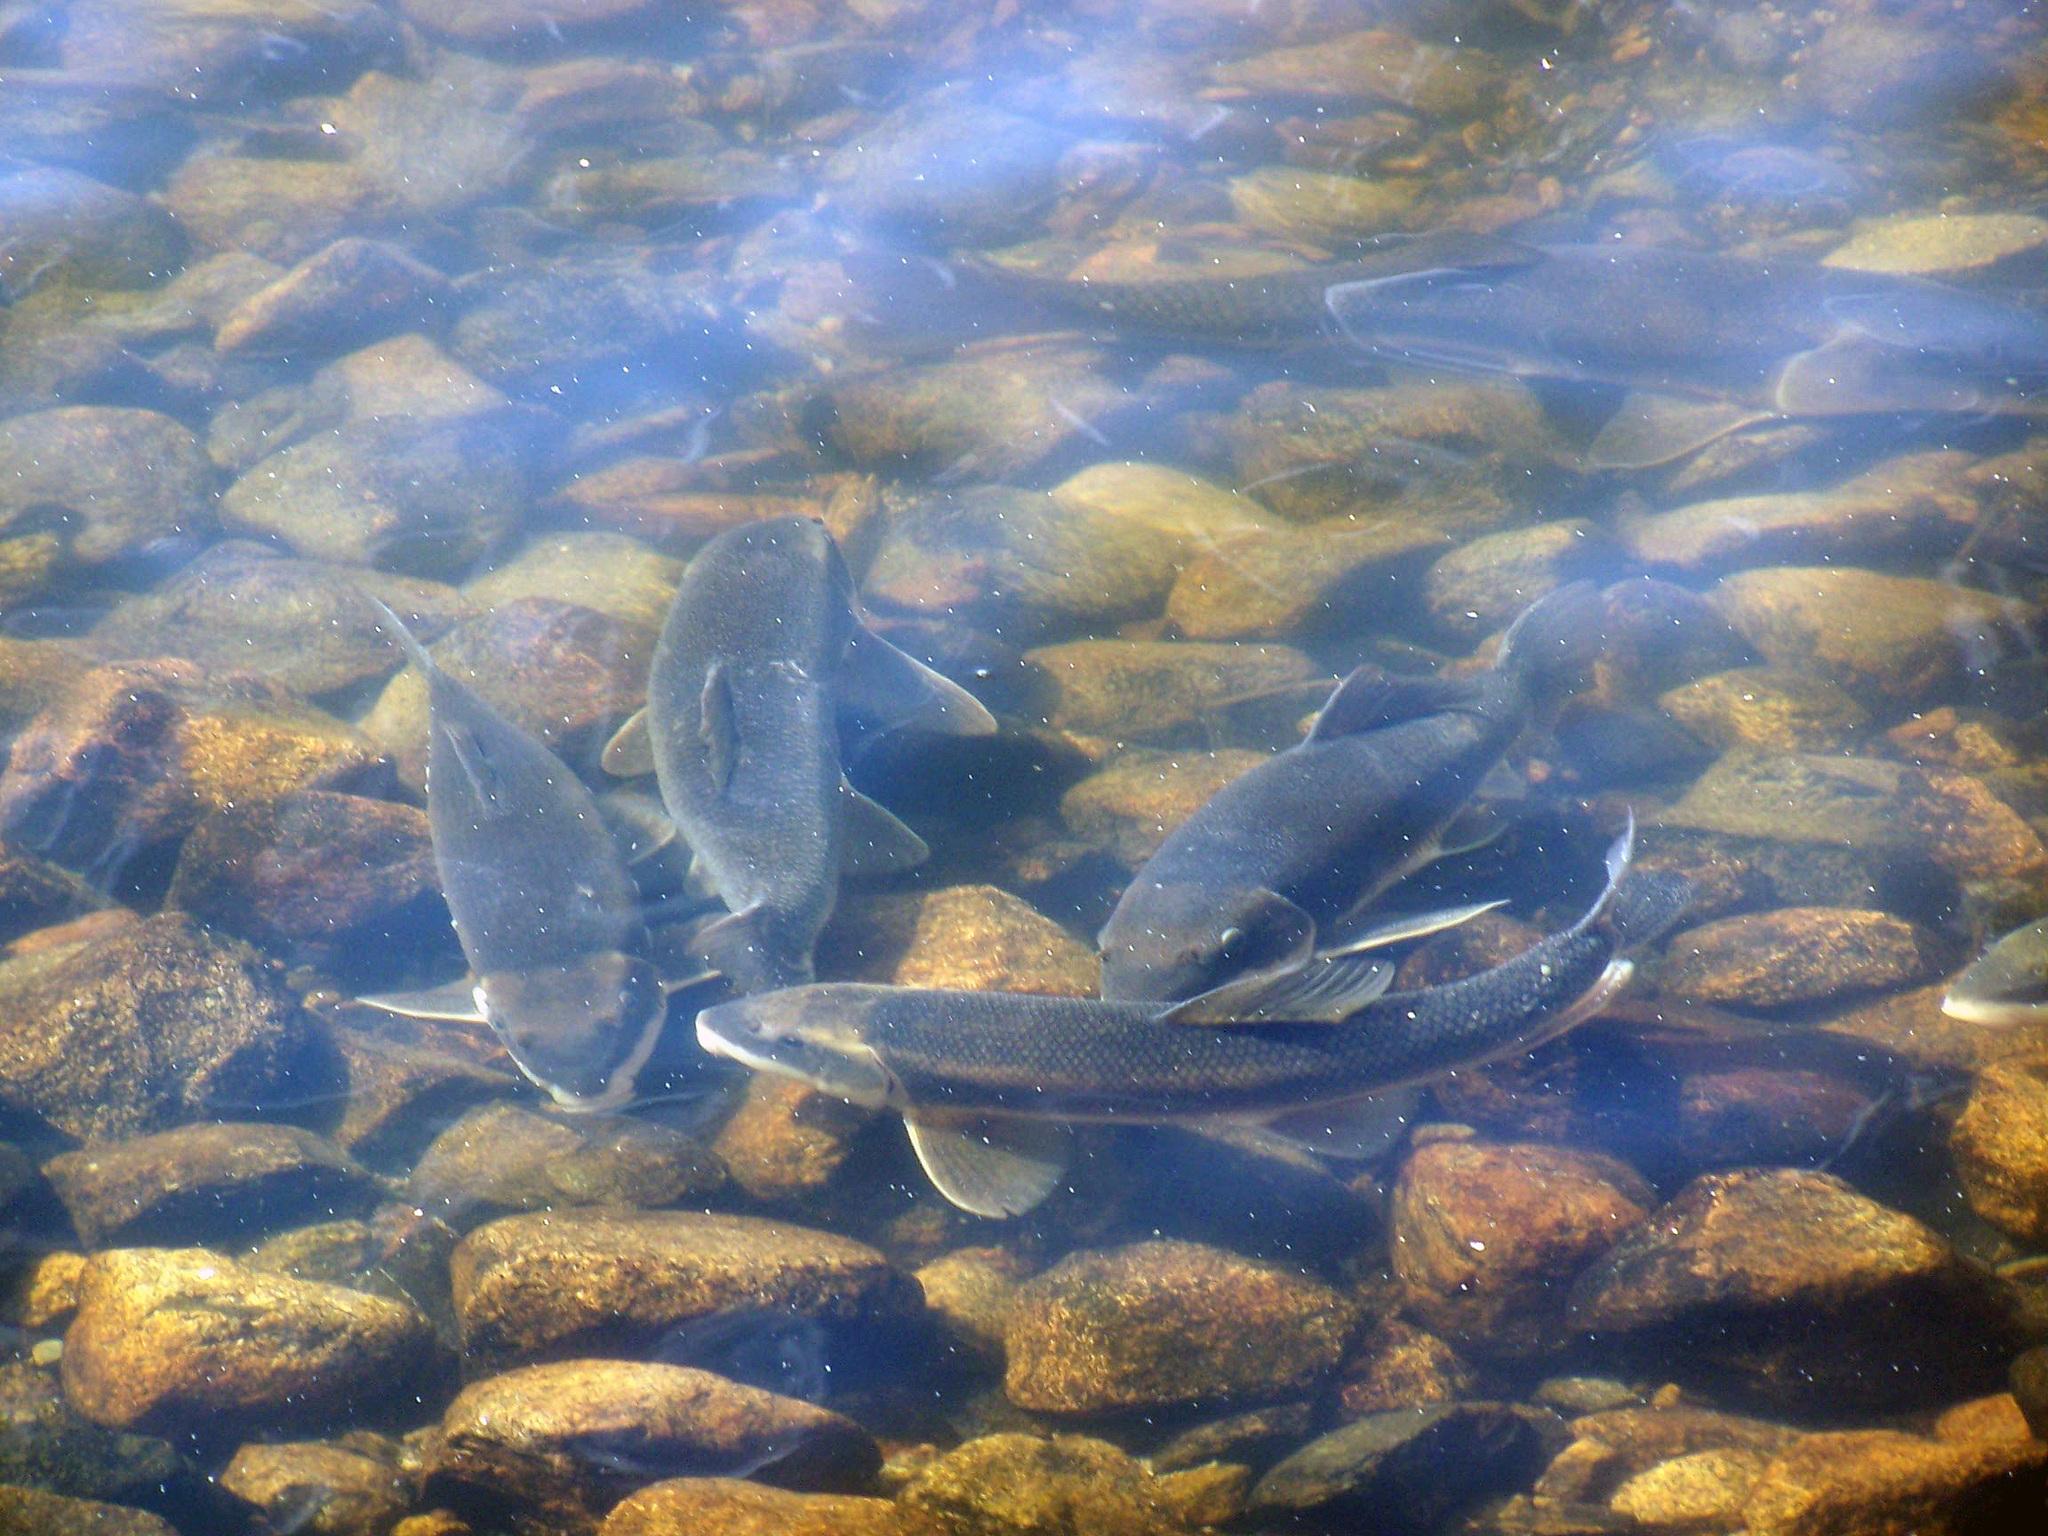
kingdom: Animalia
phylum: Chordata
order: Cypriniformes
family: Catostomidae
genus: Catostomus
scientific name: Catostomus commersonii
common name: White sucker
